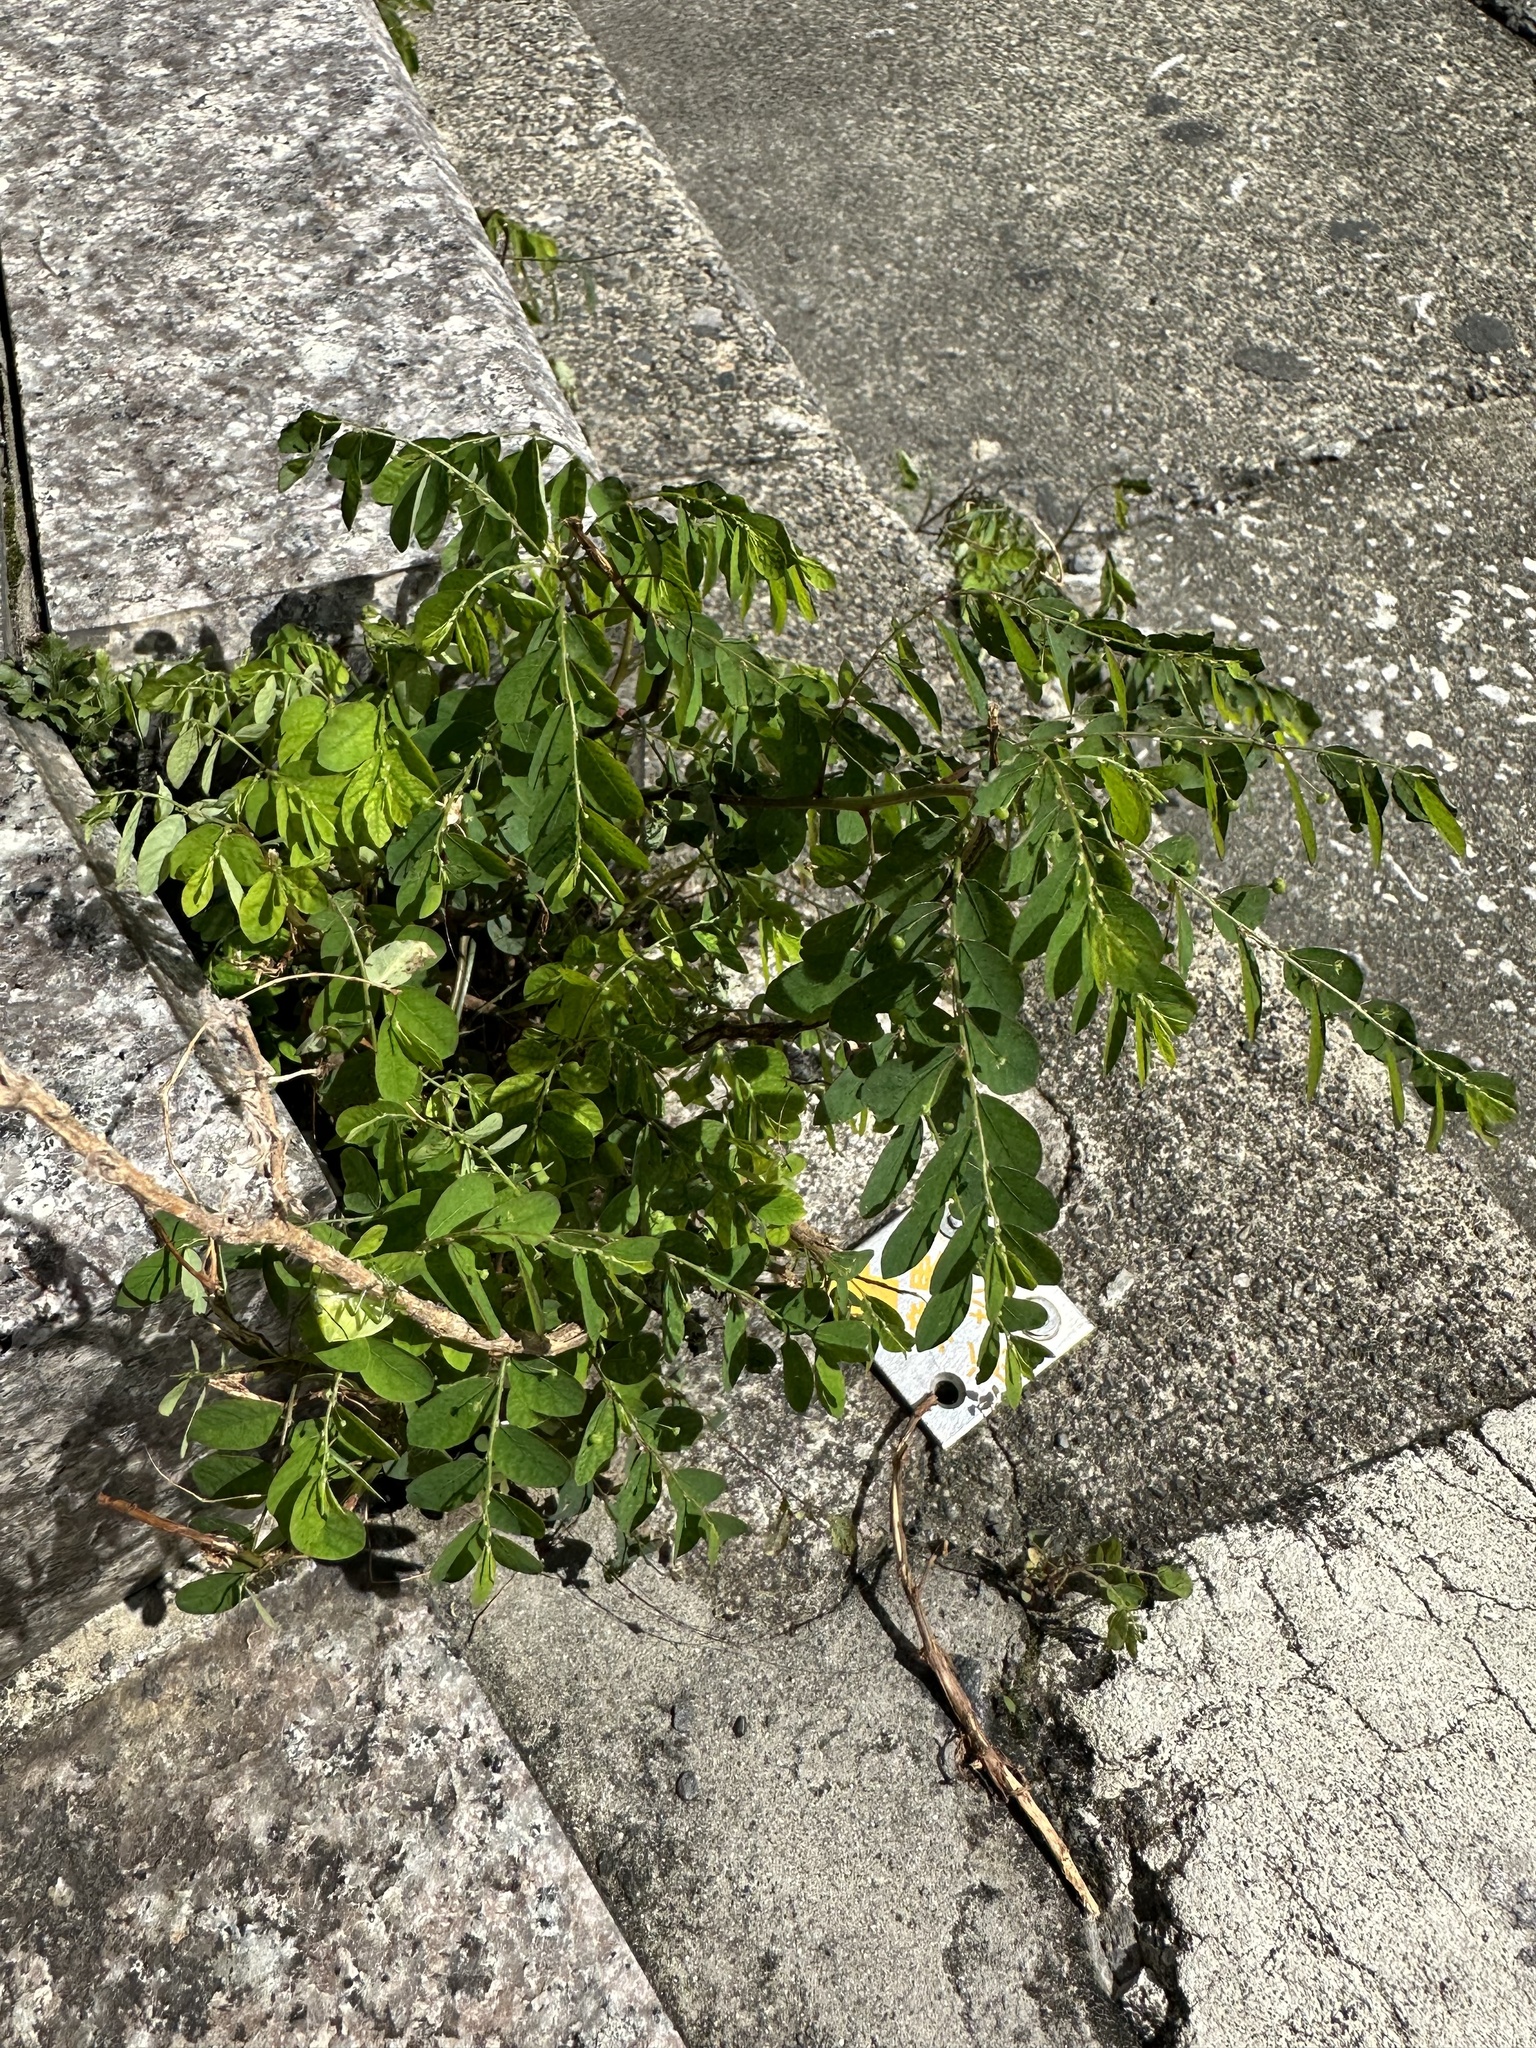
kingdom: Plantae
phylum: Tracheophyta
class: Magnoliopsida
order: Malpighiales
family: Phyllanthaceae
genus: Phyllanthus
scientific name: Phyllanthus tenellus
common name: Mascarene island leaf-flower
